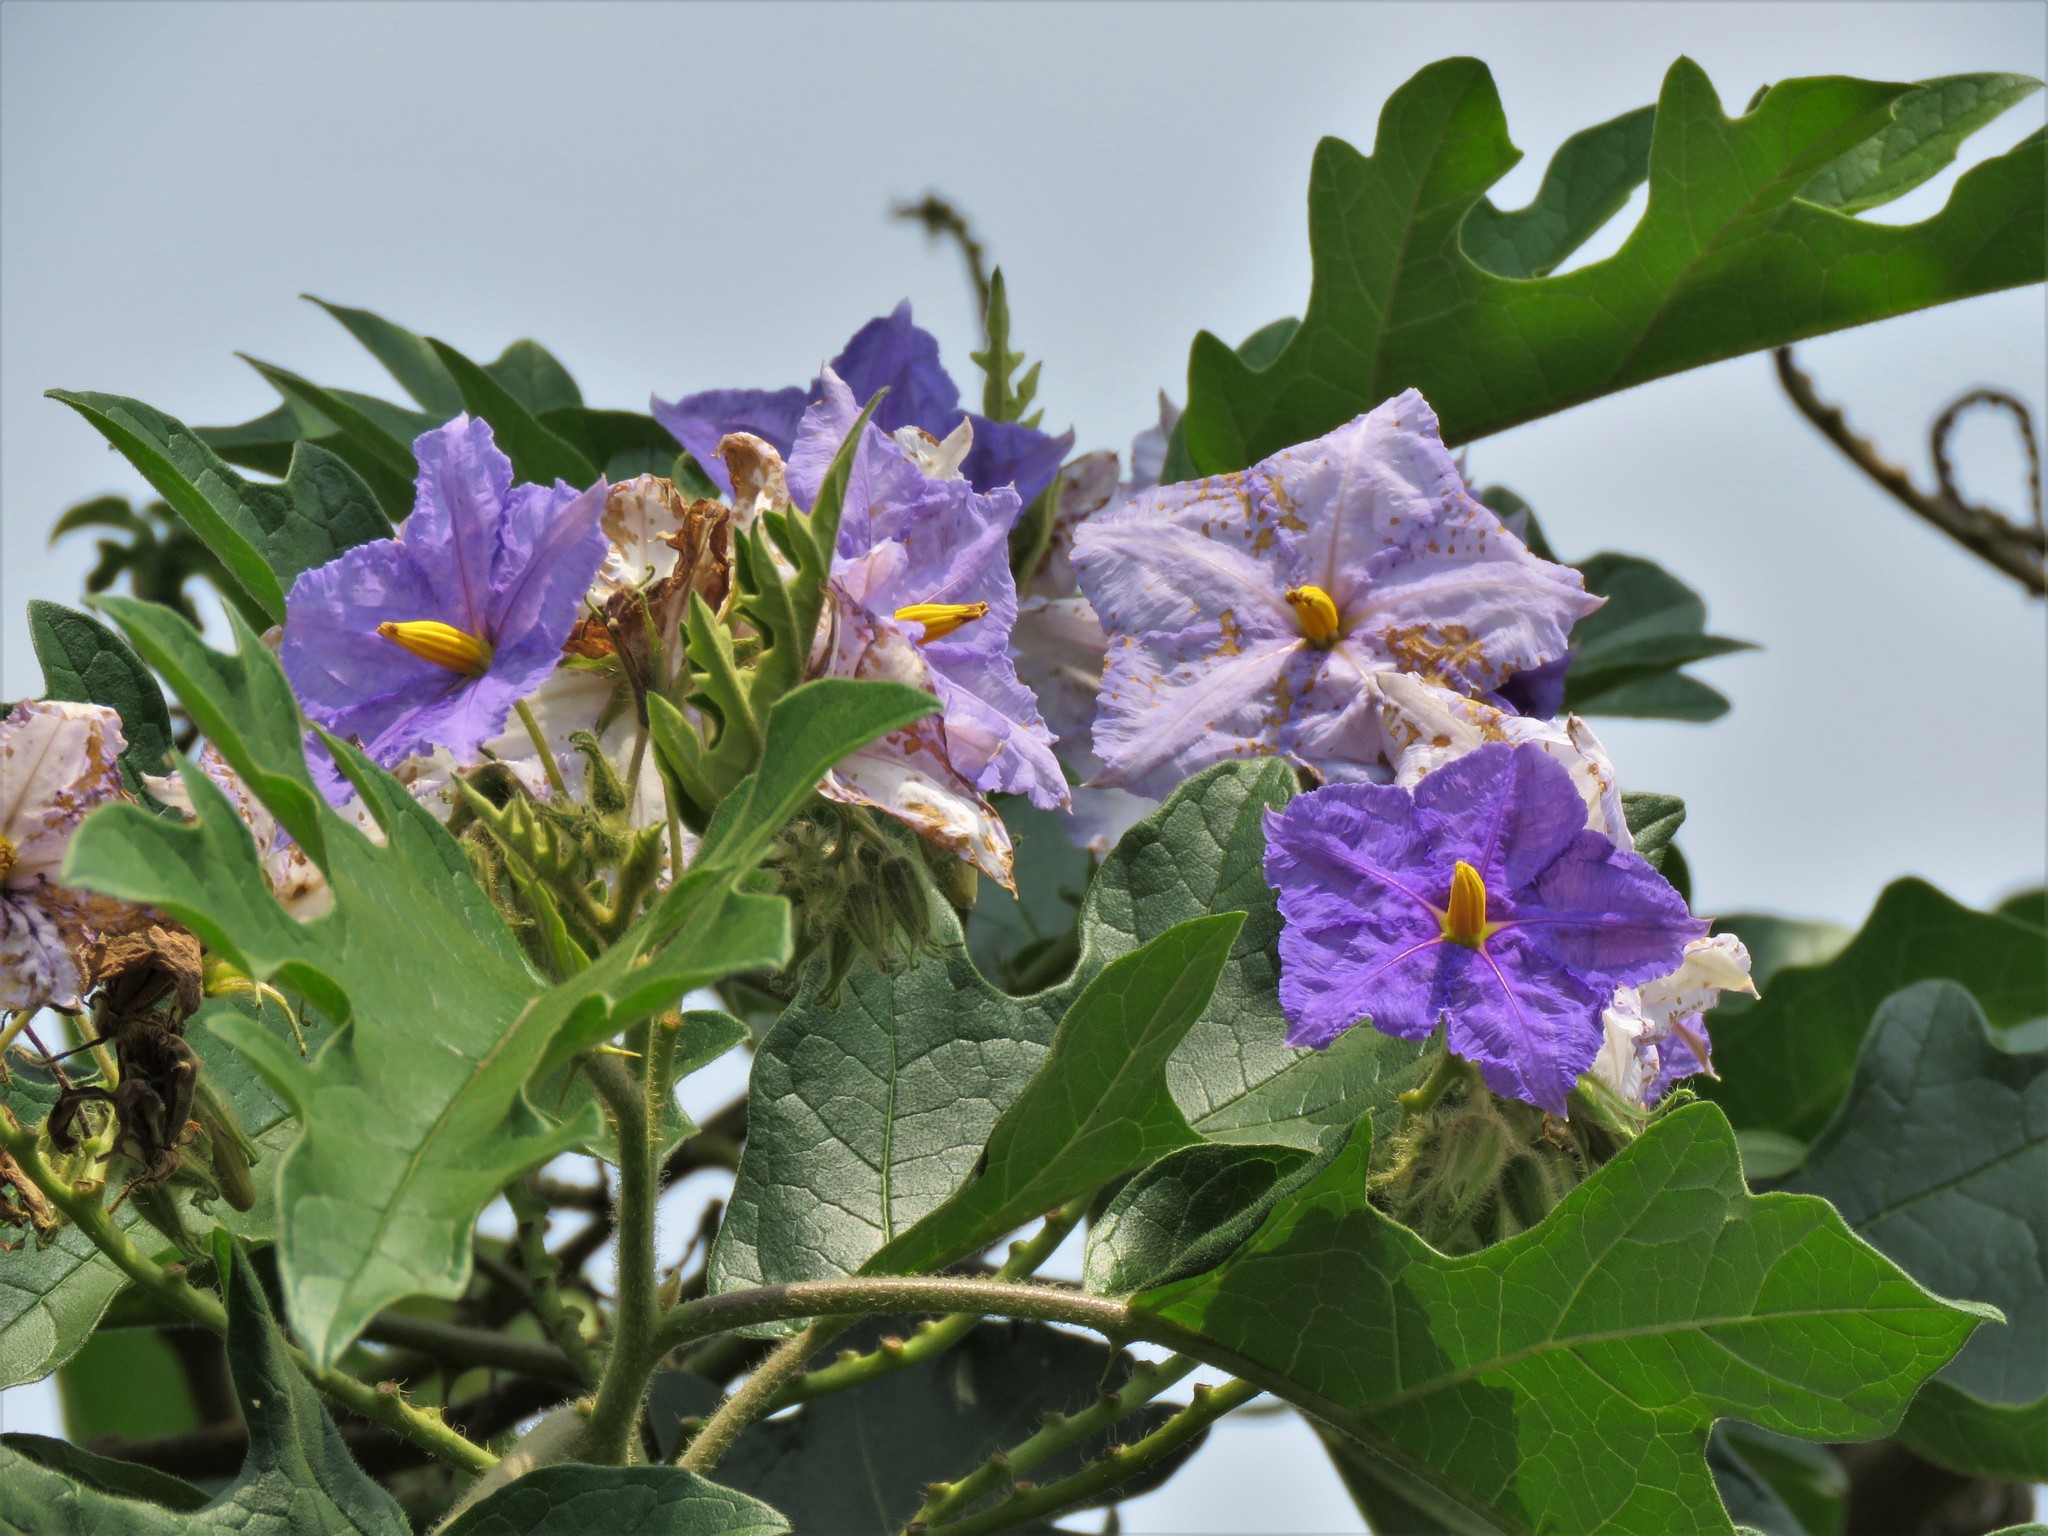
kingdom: Plantae
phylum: Tracheophyta
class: Magnoliopsida
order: Solanales
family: Solanaceae
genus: Solanum
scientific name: Solanum wrightii
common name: Brazilian potato-tree
